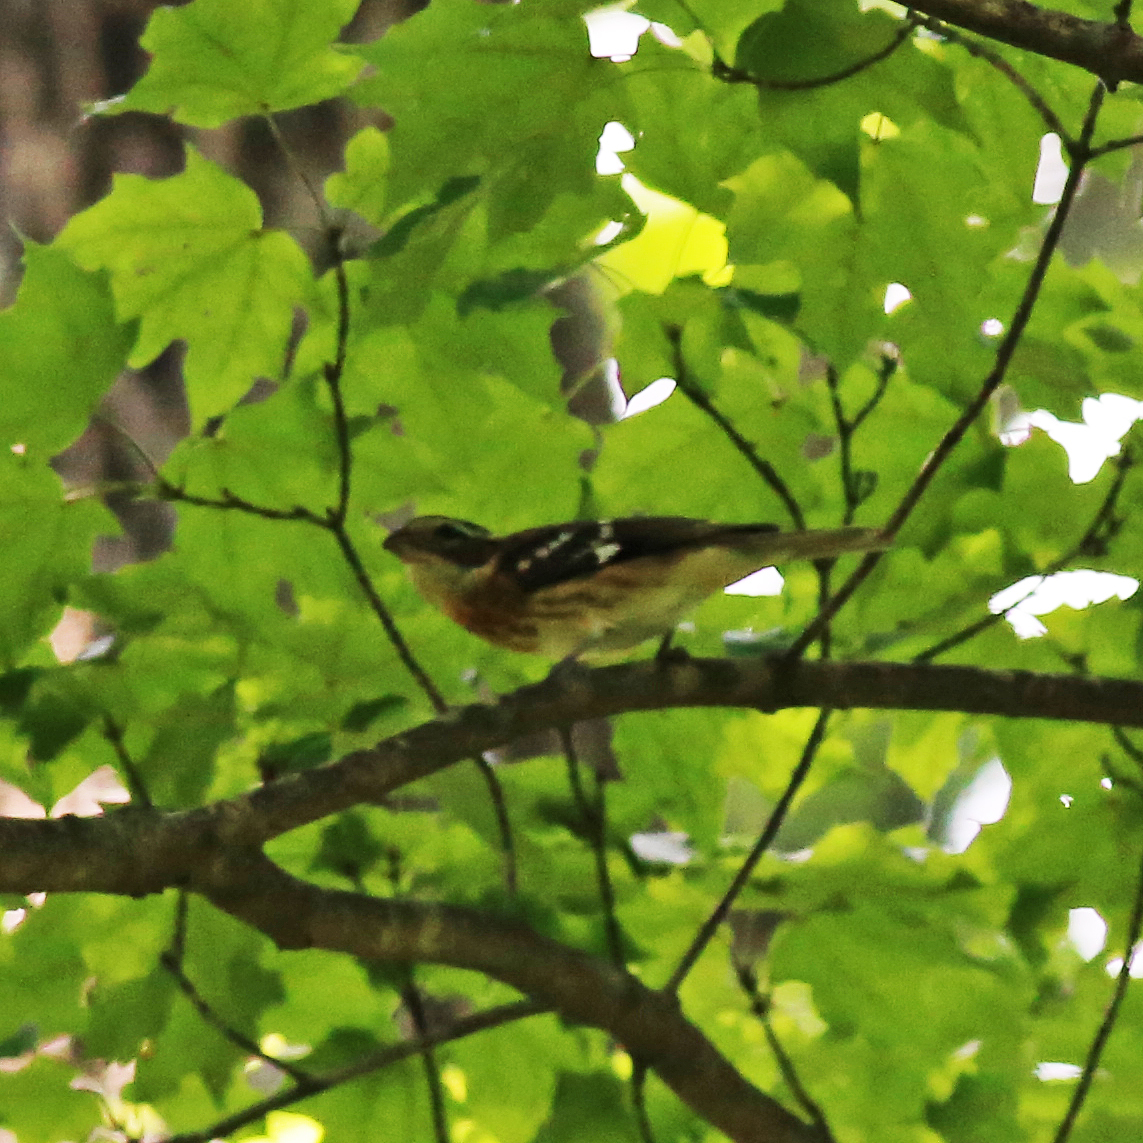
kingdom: Animalia
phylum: Chordata
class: Aves
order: Passeriformes
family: Cardinalidae
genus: Pheucticus
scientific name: Pheucticus ludovicianus
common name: Rose-breasted grosbeak
